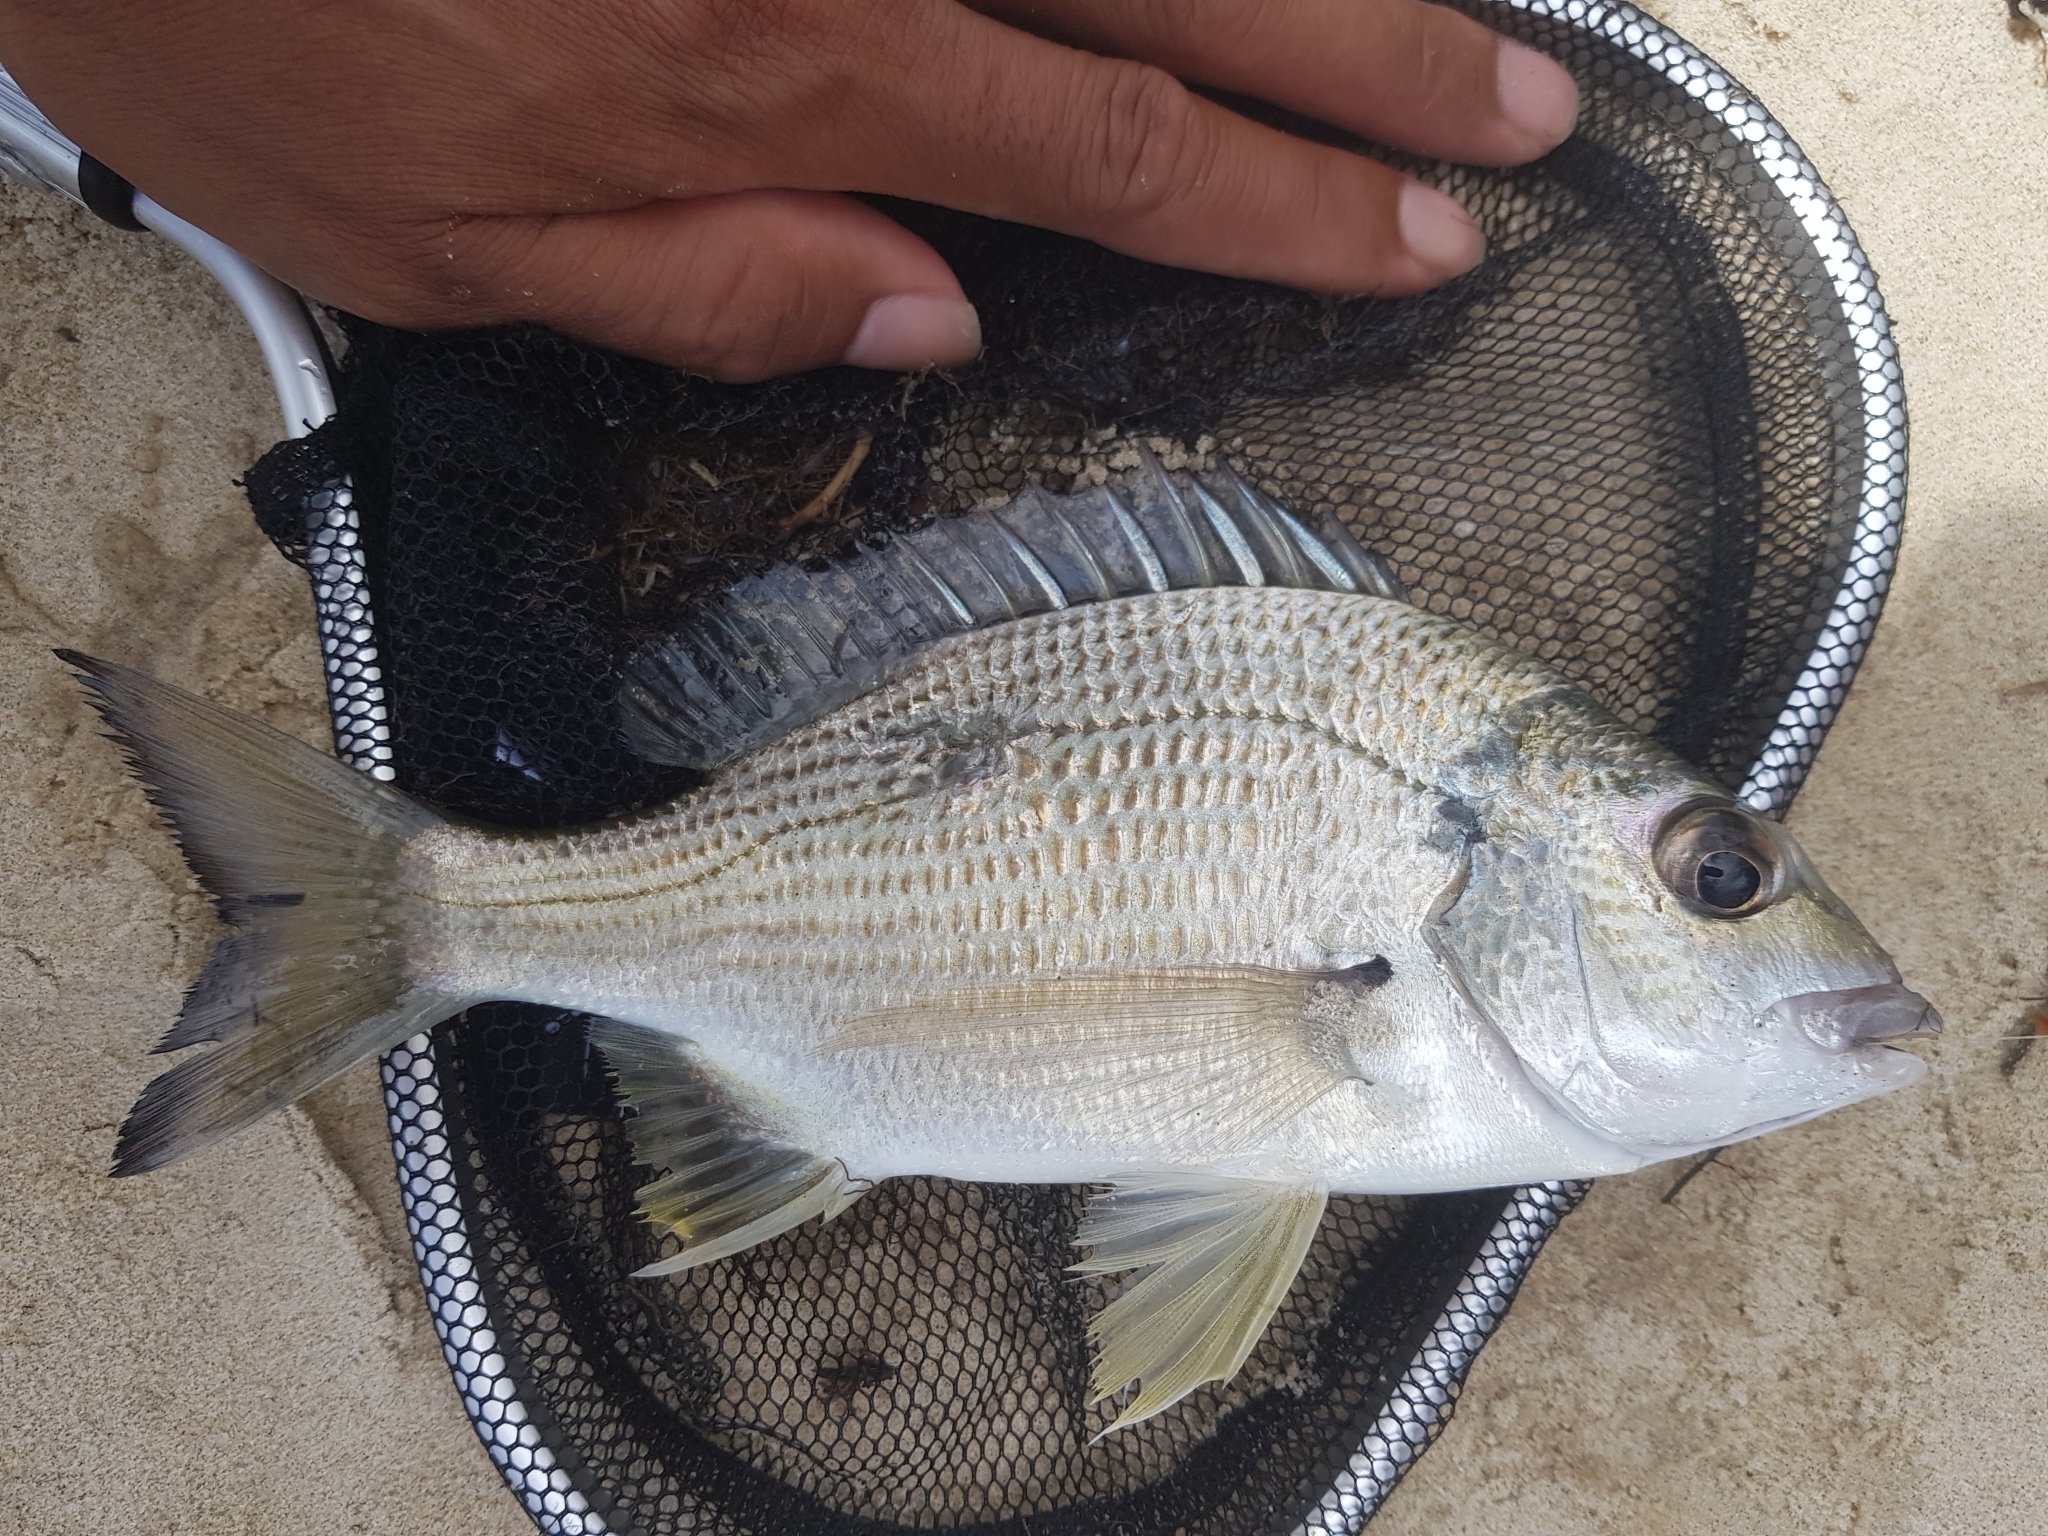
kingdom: Animalia
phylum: Chordata
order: Perciformes
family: Sparidae
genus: Acanthopagrus
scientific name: Acanthopagrus australis
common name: Surf bream
